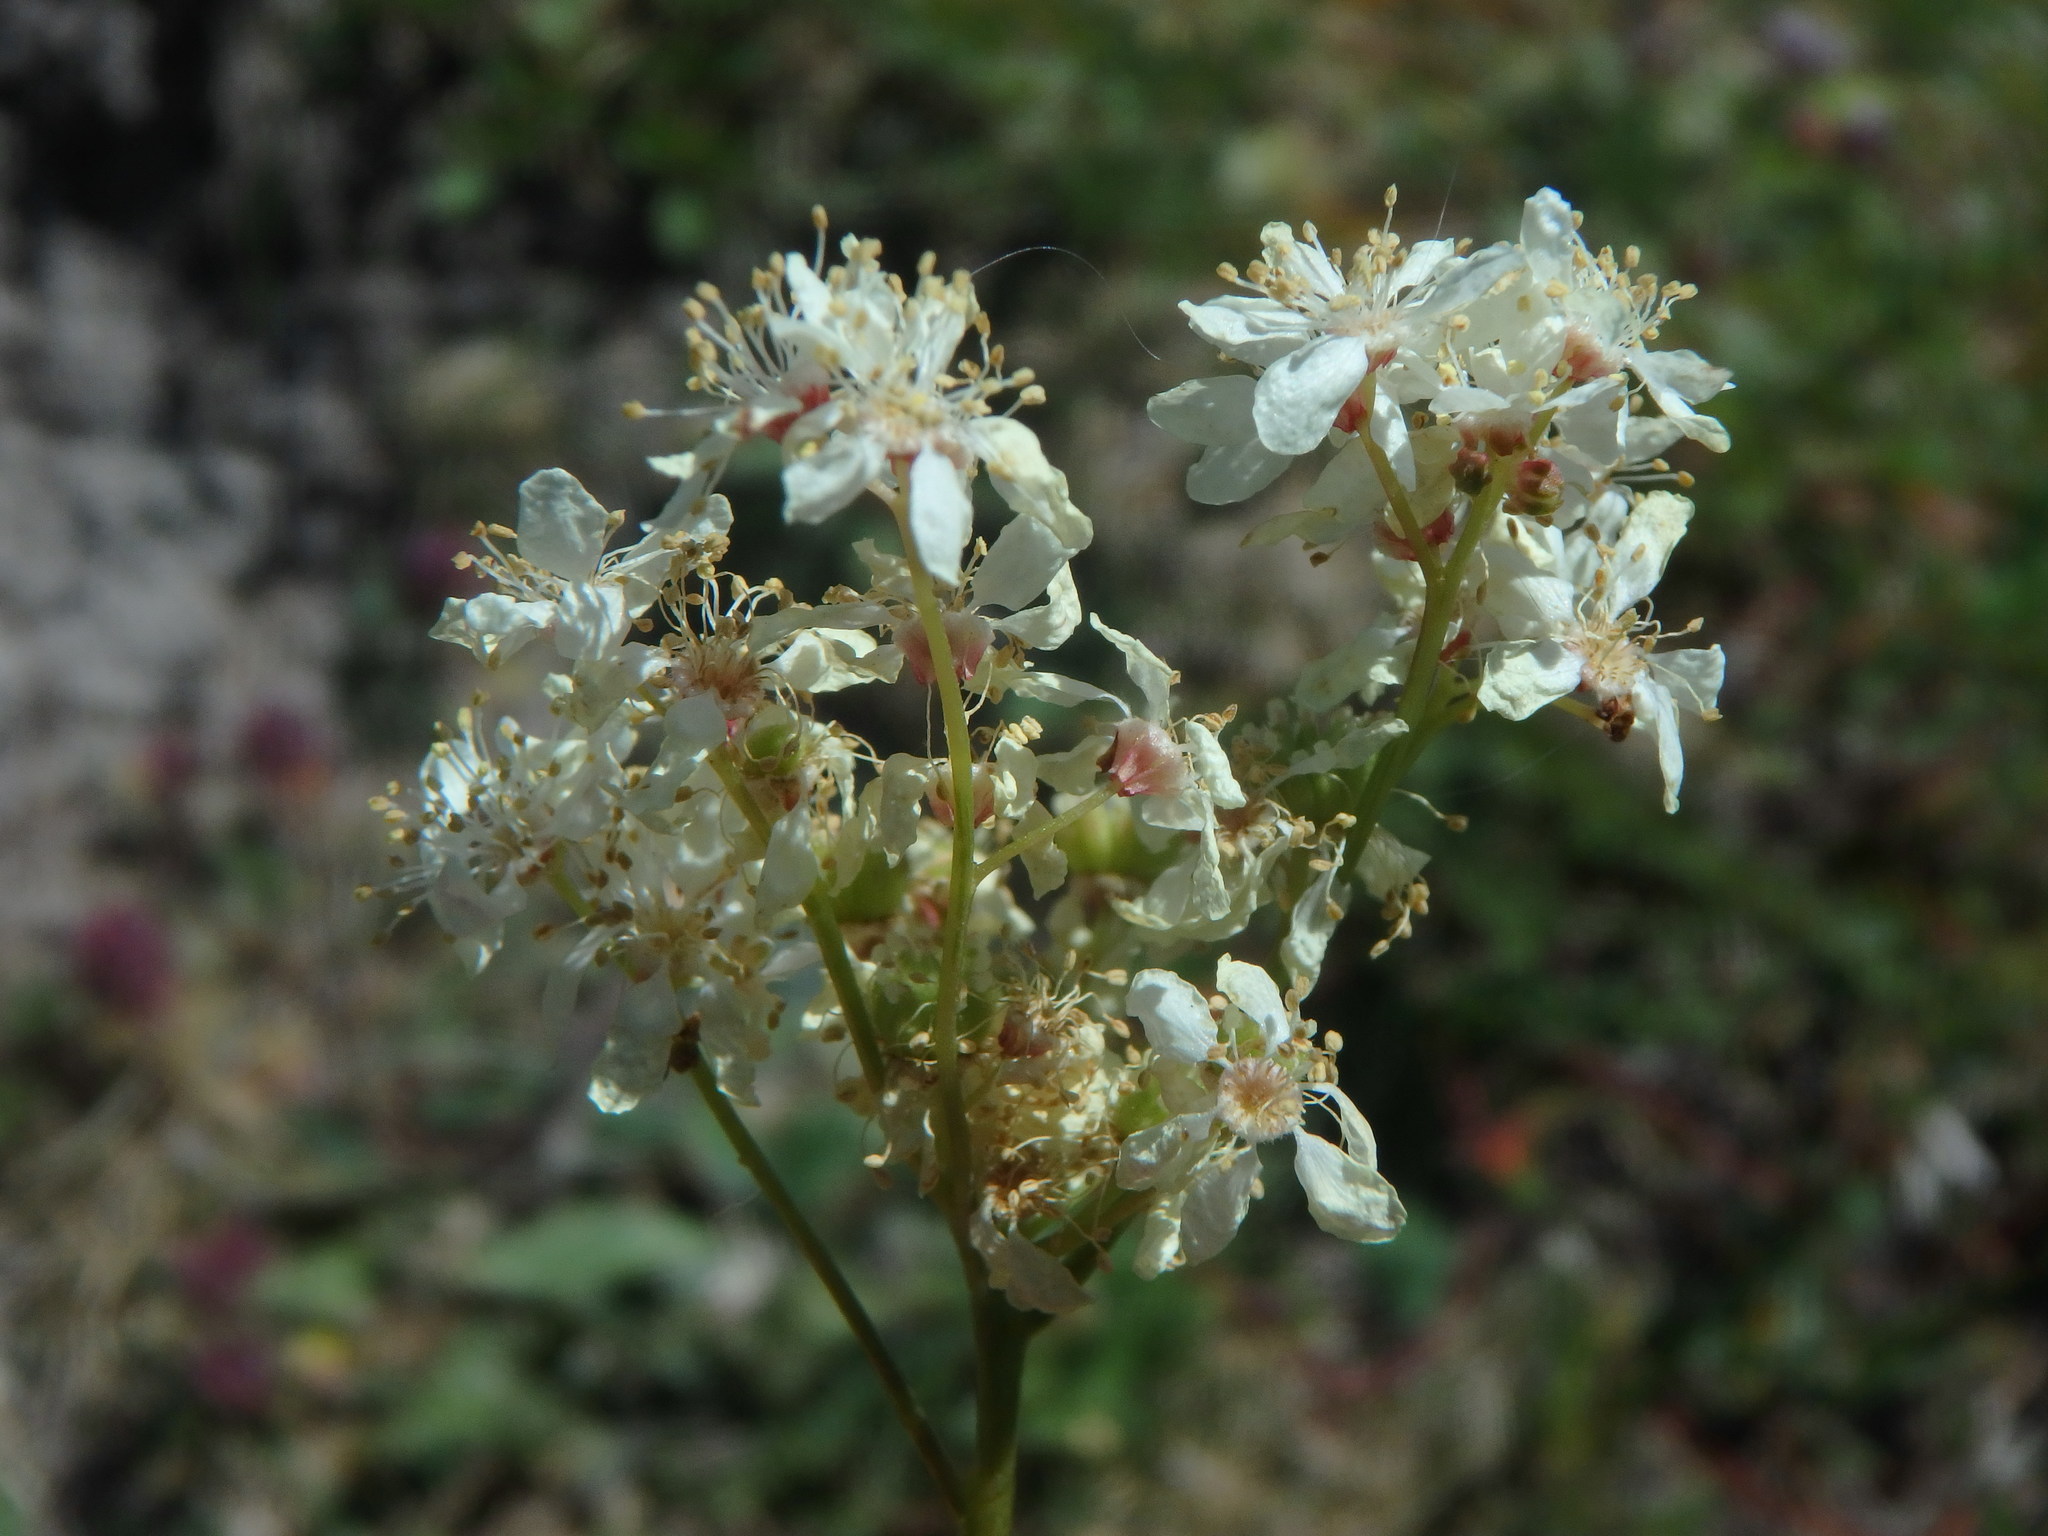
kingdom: Plantae
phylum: Tracheophyta
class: Magnoliopsida
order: Rosales
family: Rosaceae
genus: Filipendula
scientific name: Filipendula vulgaris
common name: Dropwort
